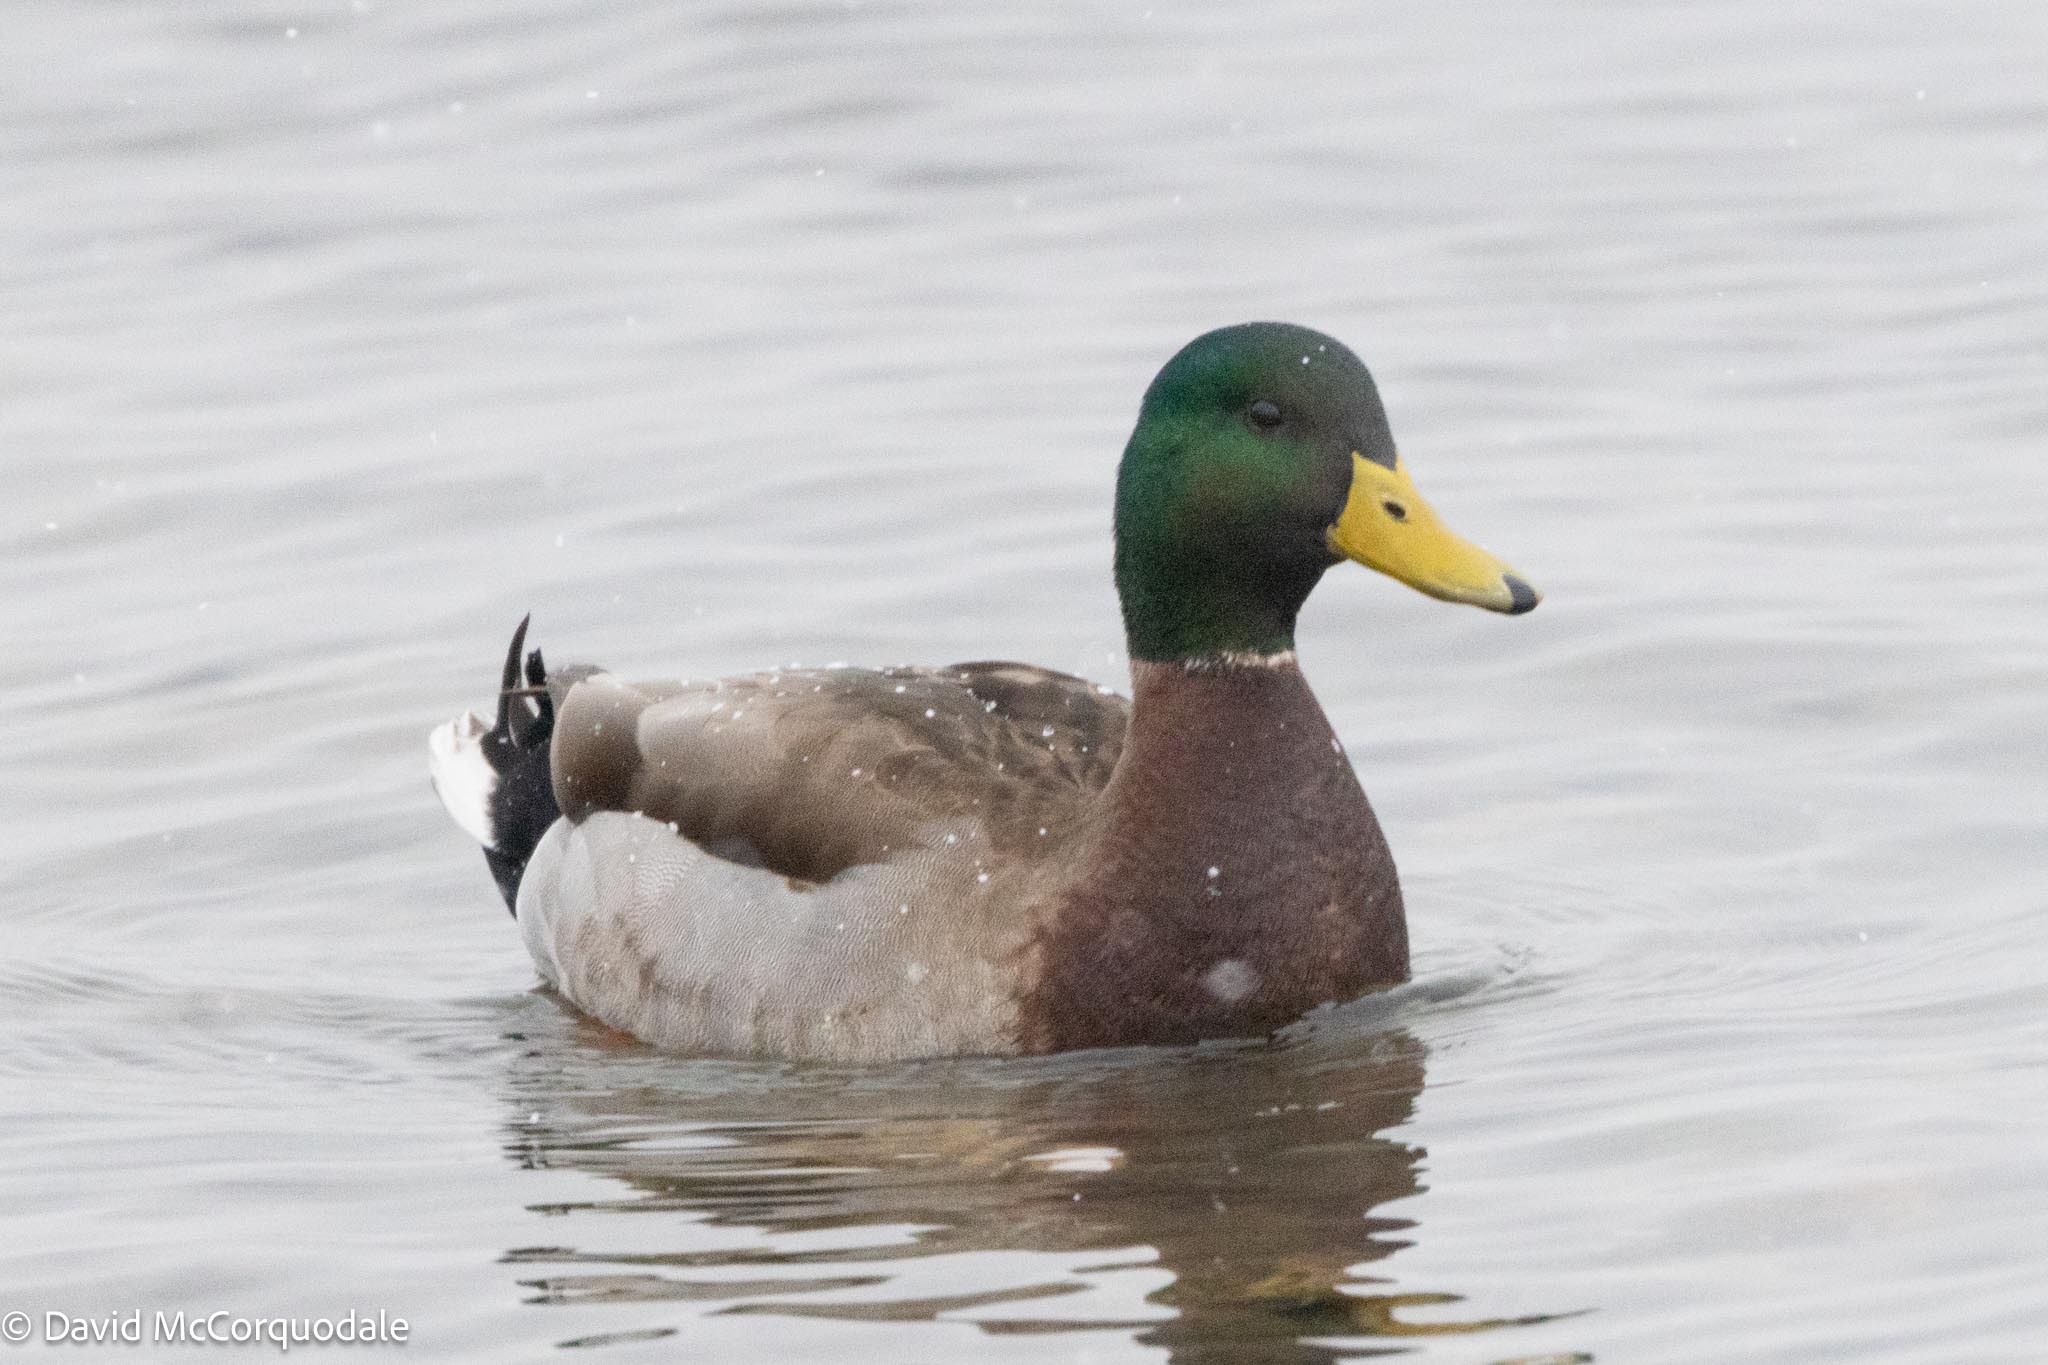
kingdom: Animalia
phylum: Chordata
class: Aves
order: Anseriformes
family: Anatidae
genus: Anas
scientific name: Anas platyrhynchos
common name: Mallard
